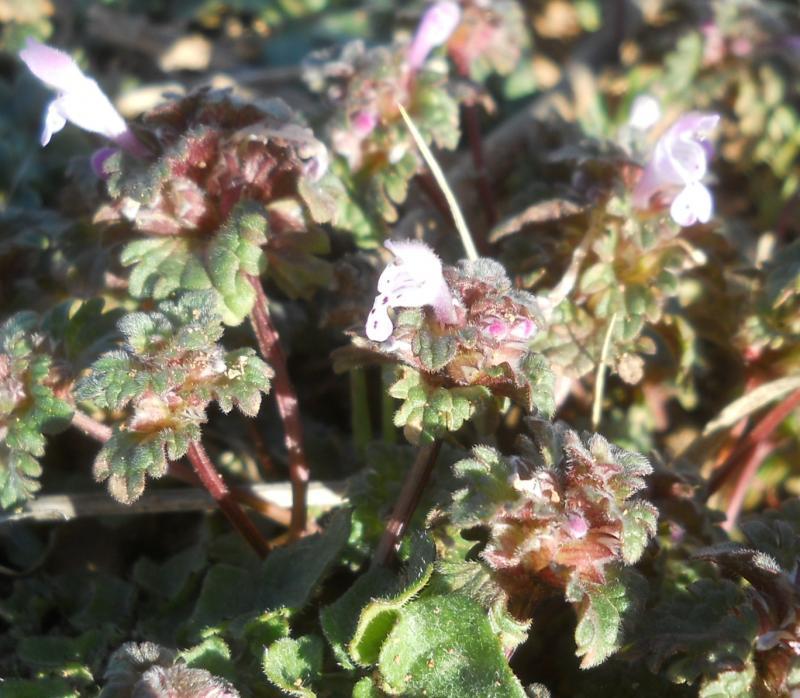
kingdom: Plantae
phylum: Tracheophyta
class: Magnoliopsida
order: Lamiales
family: Lamiaceae
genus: Lamium
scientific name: Lamium amplexicaule
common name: Henbit dead-nettle
